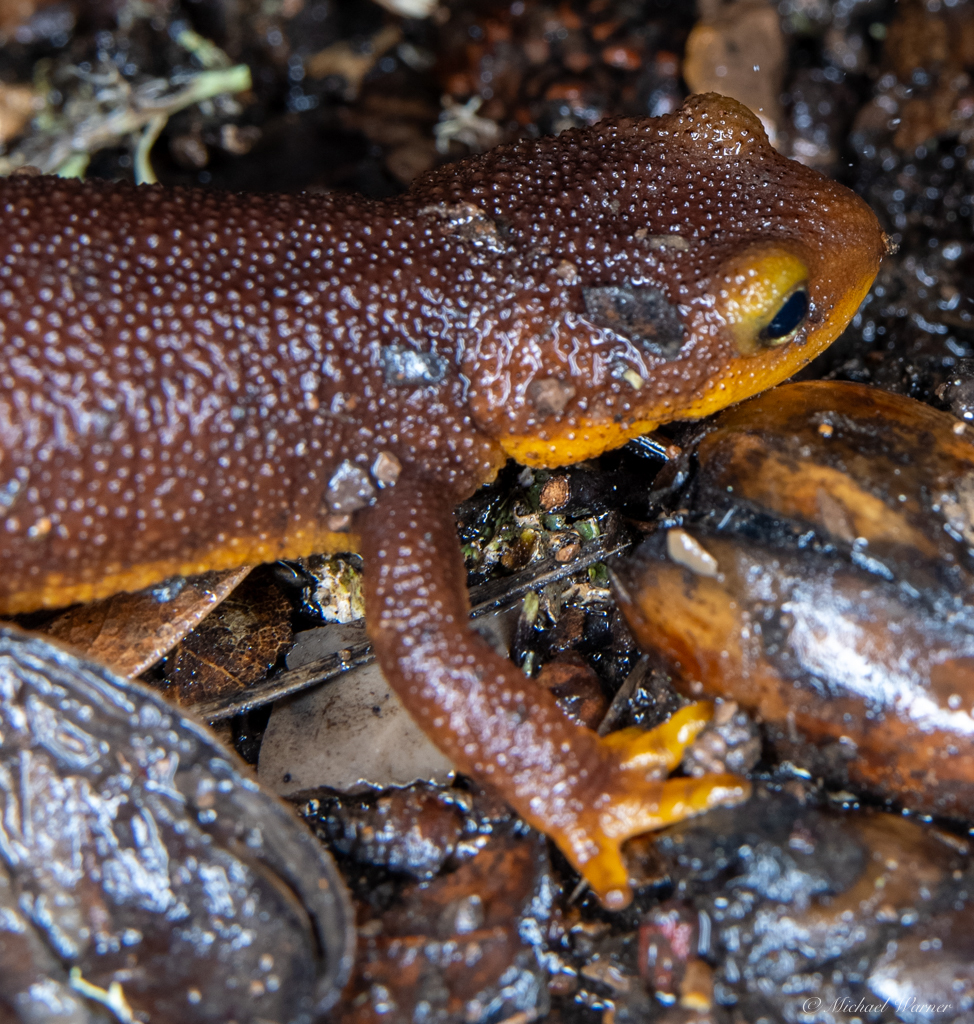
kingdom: Animalia
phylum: Chordata
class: Amphibia
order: Caudata
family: Salamandridae
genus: Taricha
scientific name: Taricha torosa
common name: California newt
